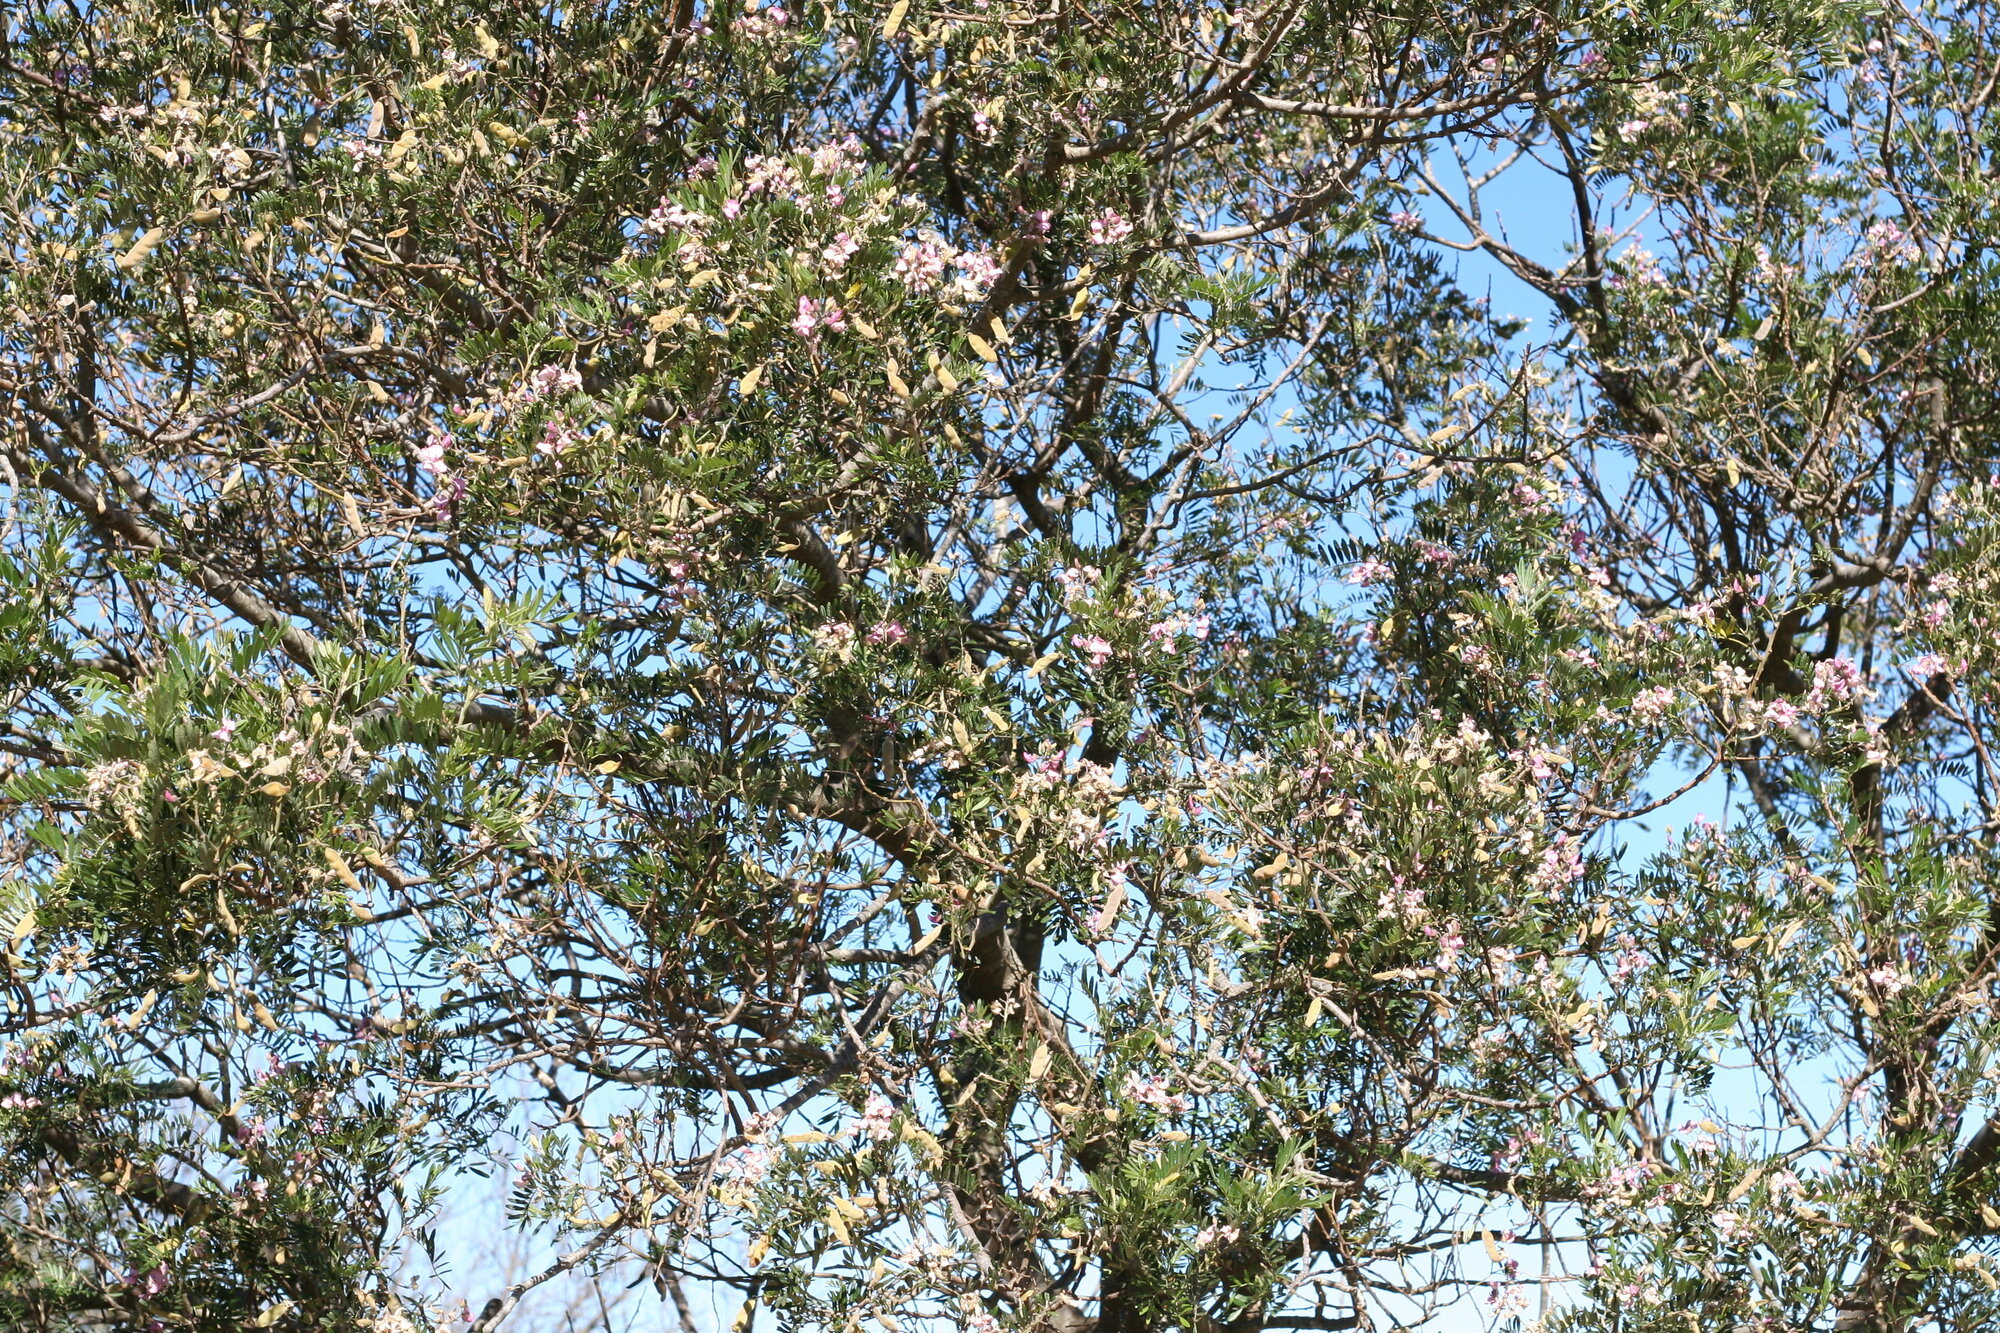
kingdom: Plantae
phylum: Tracheophyta
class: Magnoliopsida
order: Fabales
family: Fabaceae
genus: Virgilia
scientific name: Virgilia oroboides
